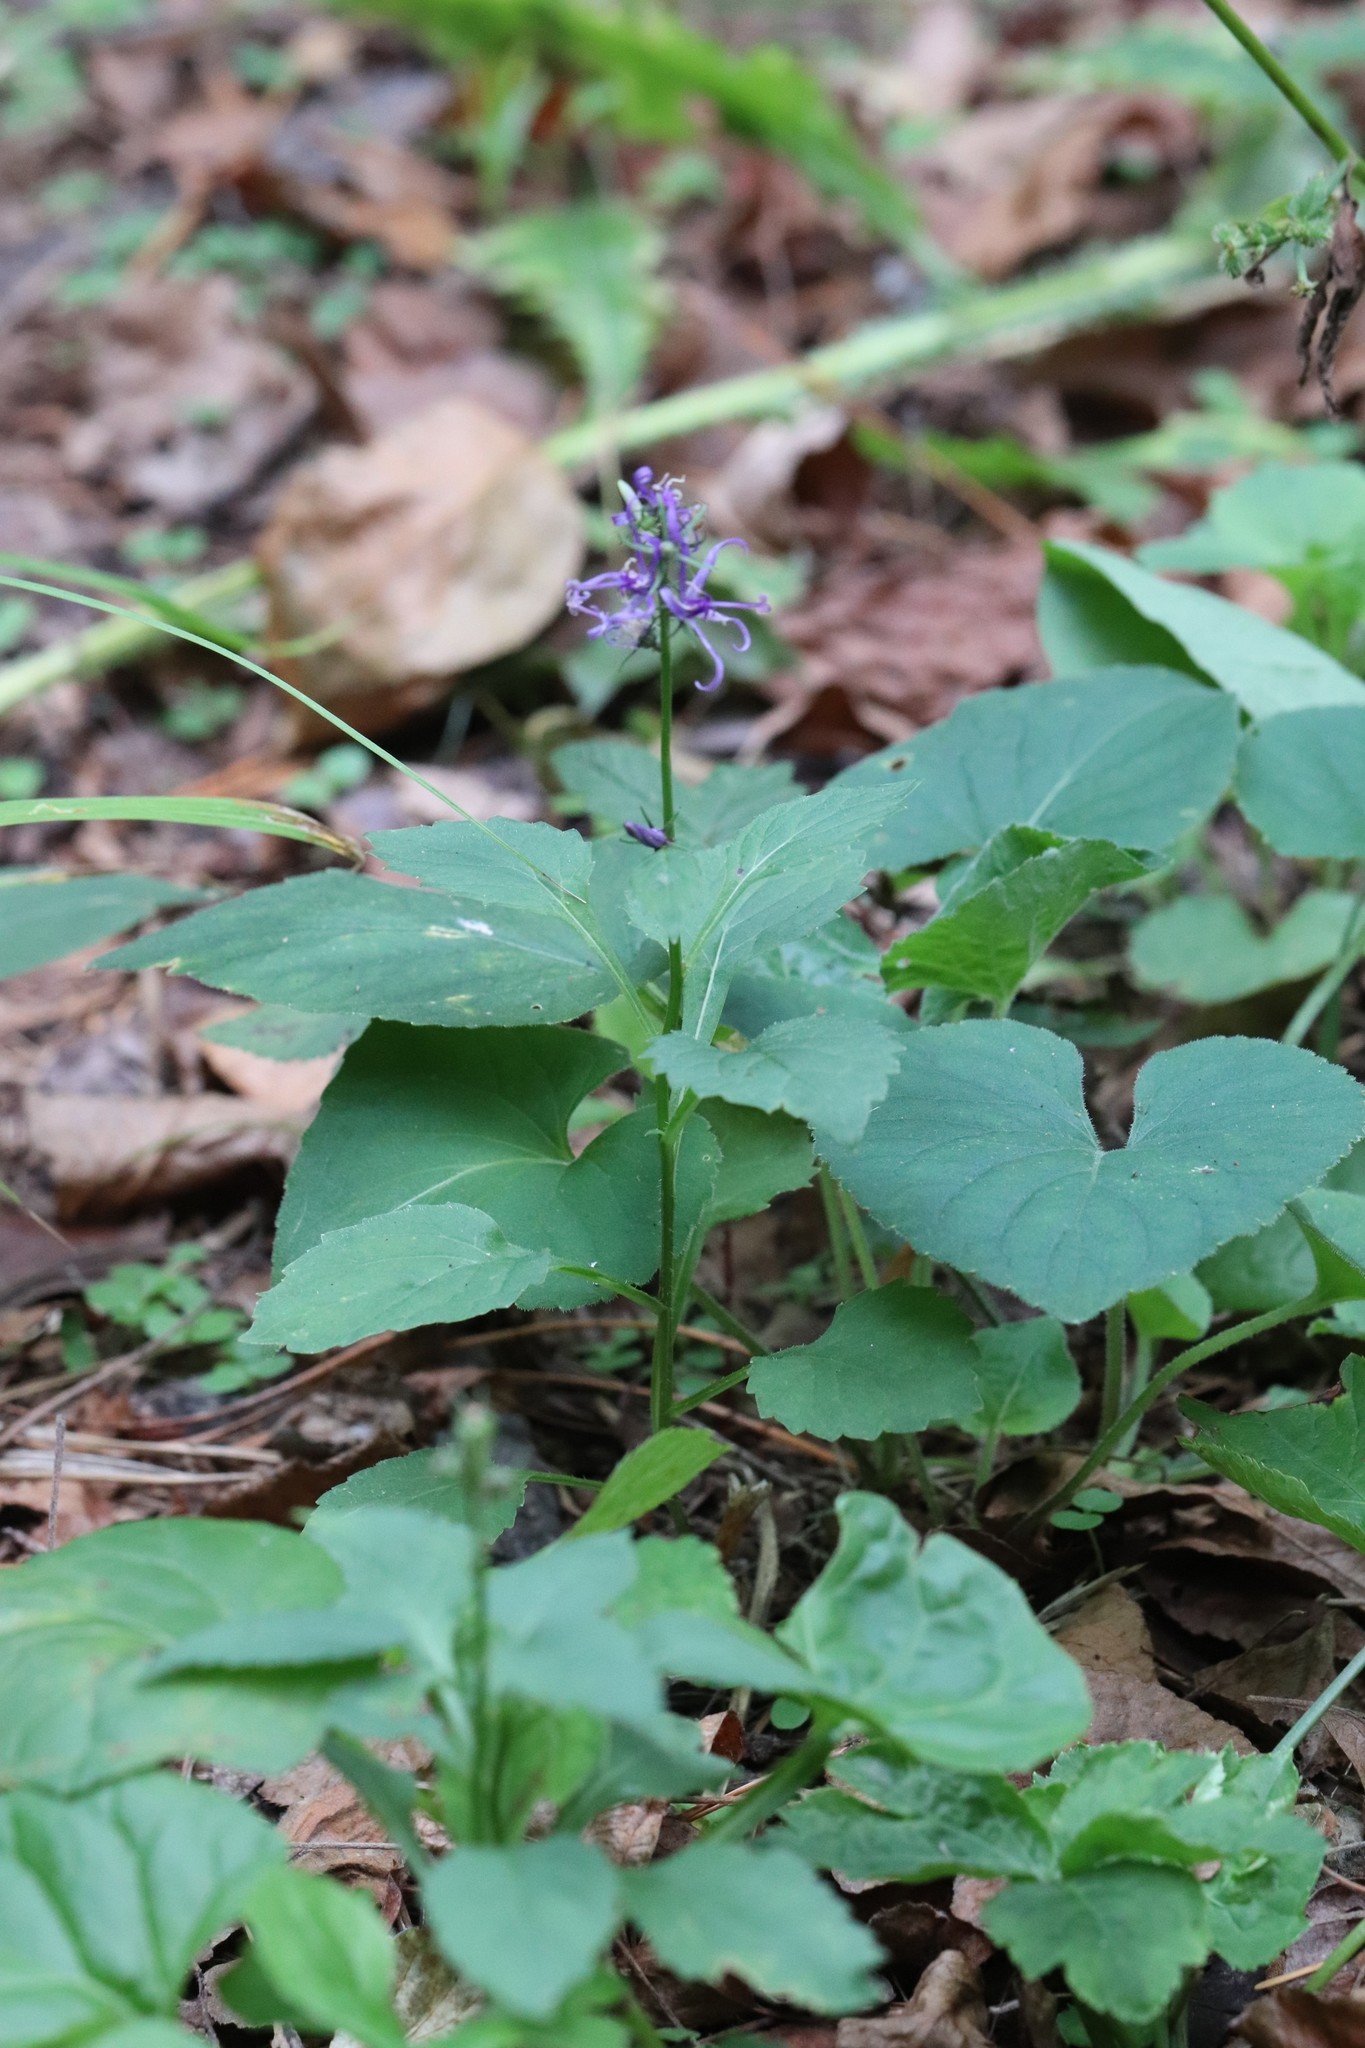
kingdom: Plantae
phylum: Tracheophyta
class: Magnoliopsida
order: Asterales
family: Campanulaceae
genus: Asyneuma
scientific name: Asyneuma japonicum
